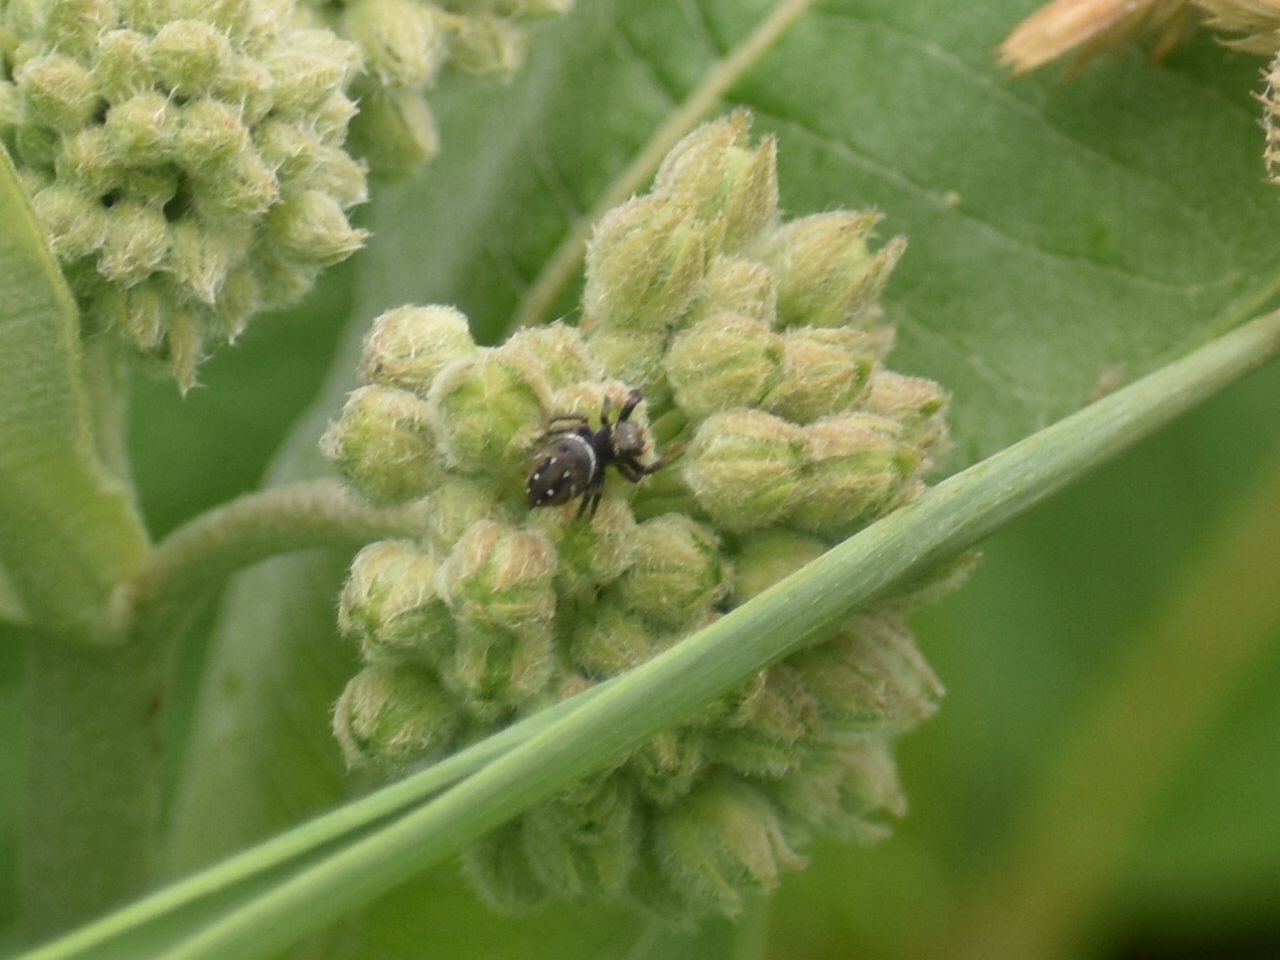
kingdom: Animalia
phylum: Arthropoda
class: Arachnida
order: Araneae
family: Salticidae
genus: Phidippus
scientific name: Phidippus clarus
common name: Brilliant jumping spider
